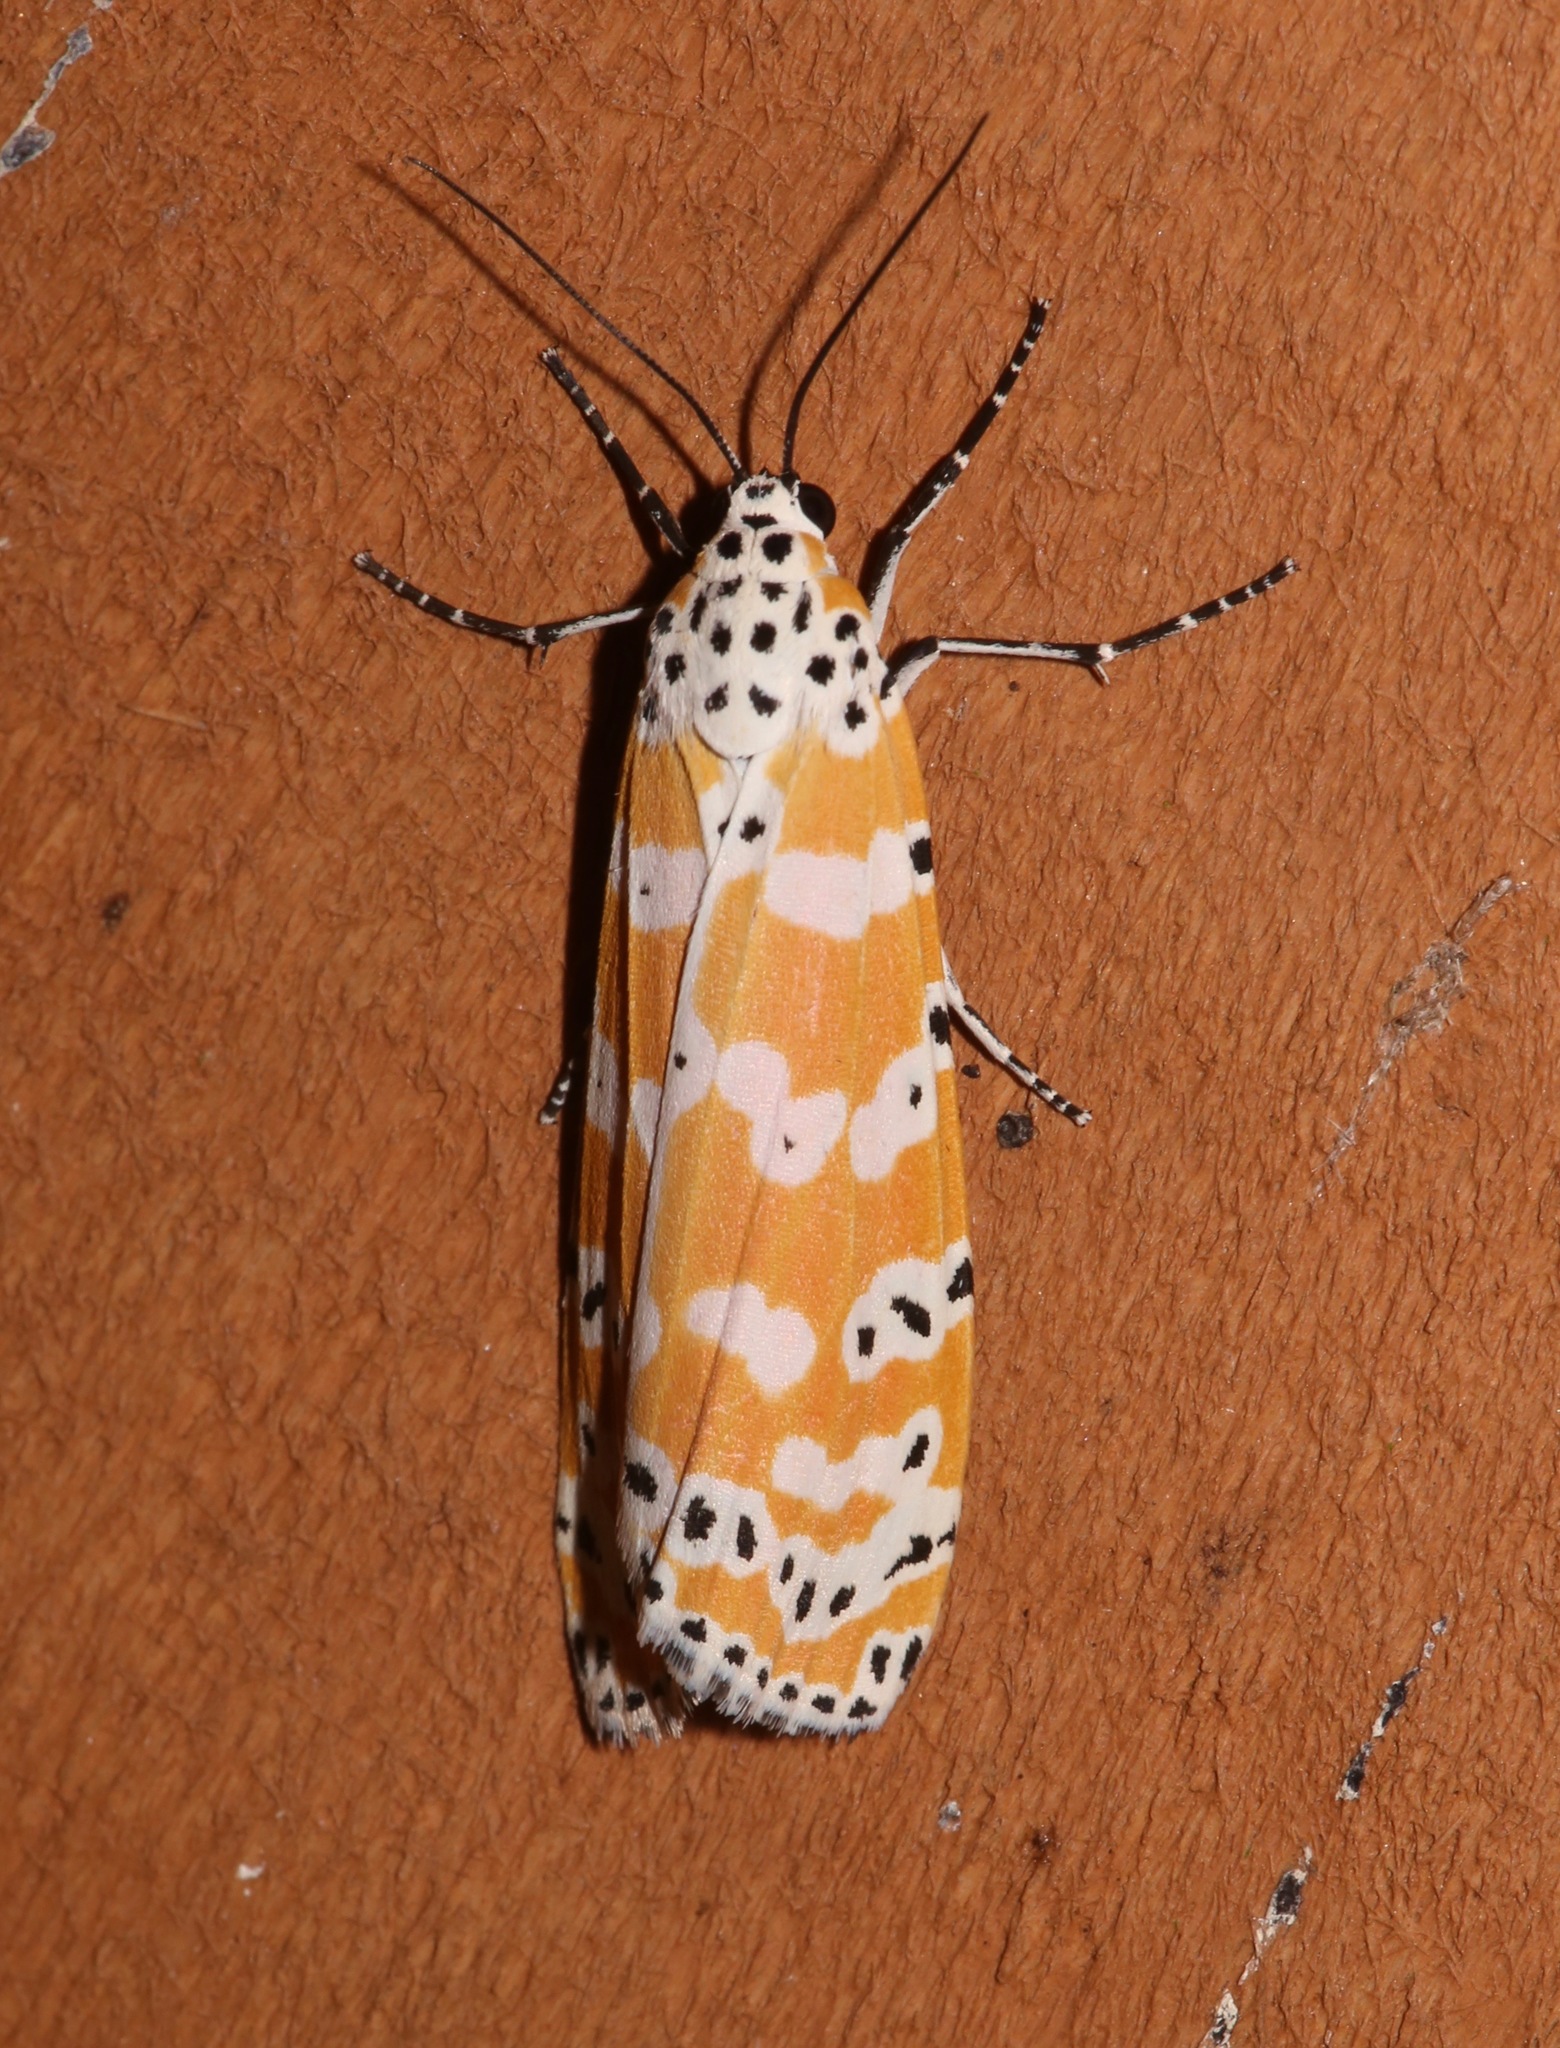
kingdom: Animalia
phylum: Arthropoda
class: Insecta
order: Lepidoptera
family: Erebidae
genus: Utetheisa
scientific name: Utetheisa ornatrix
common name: Beautiful utetheisa
